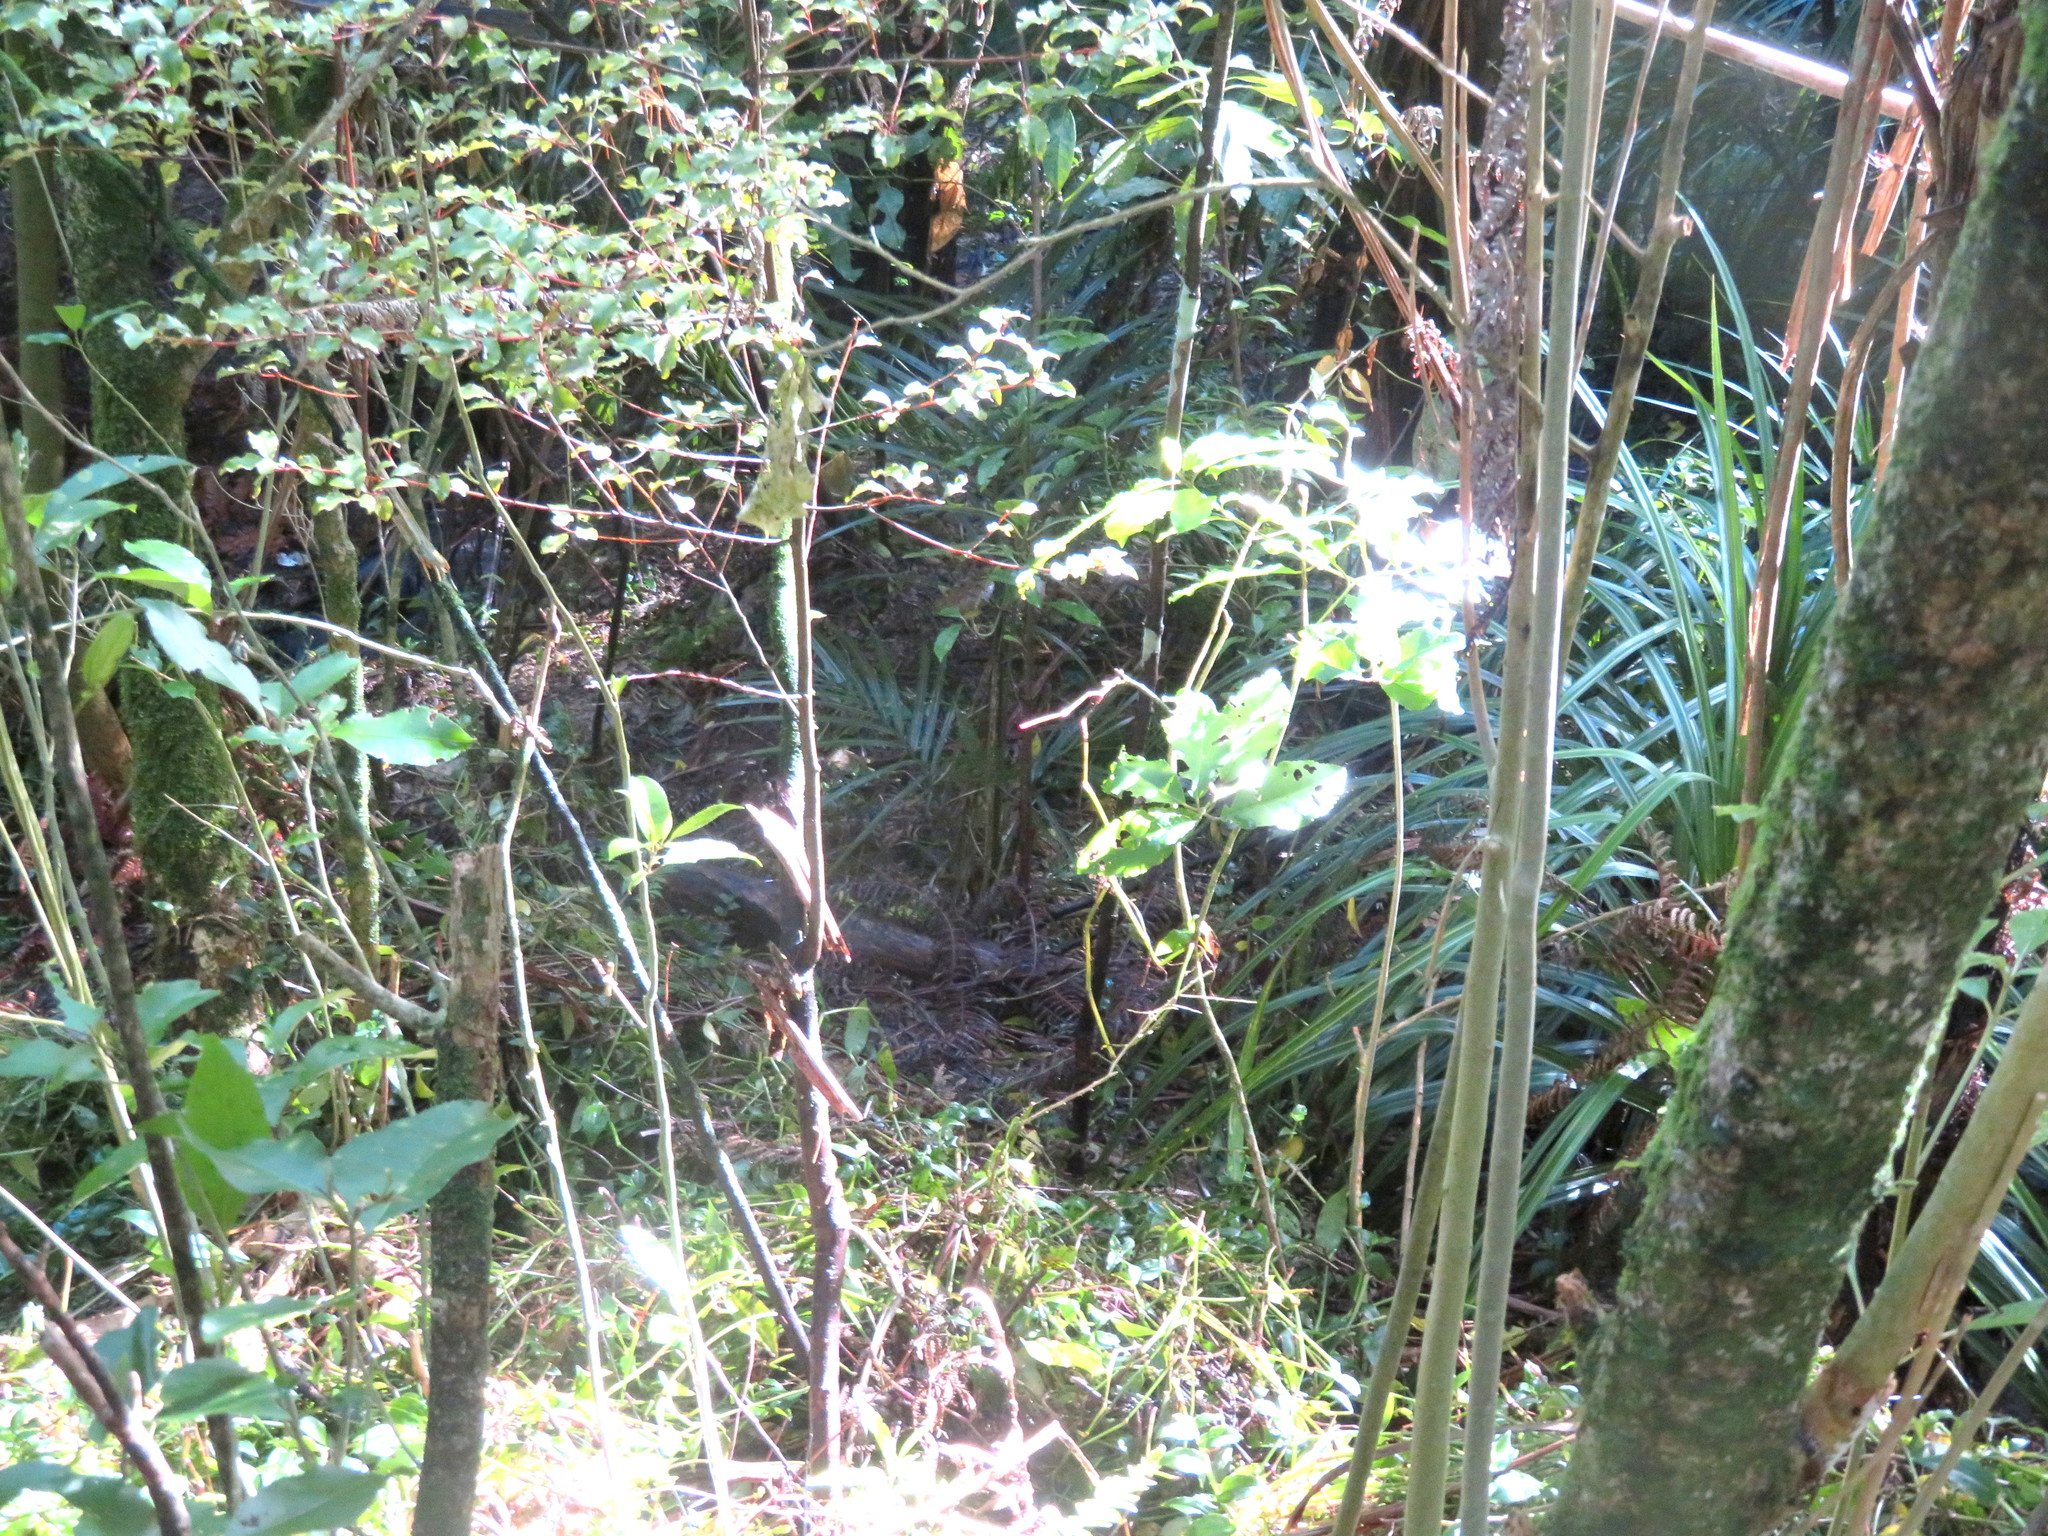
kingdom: Plantae
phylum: Tracheophyta
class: Magnoliopsida
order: Ericales
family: Primulaceae
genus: Myrsine
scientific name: Myrsine australis
